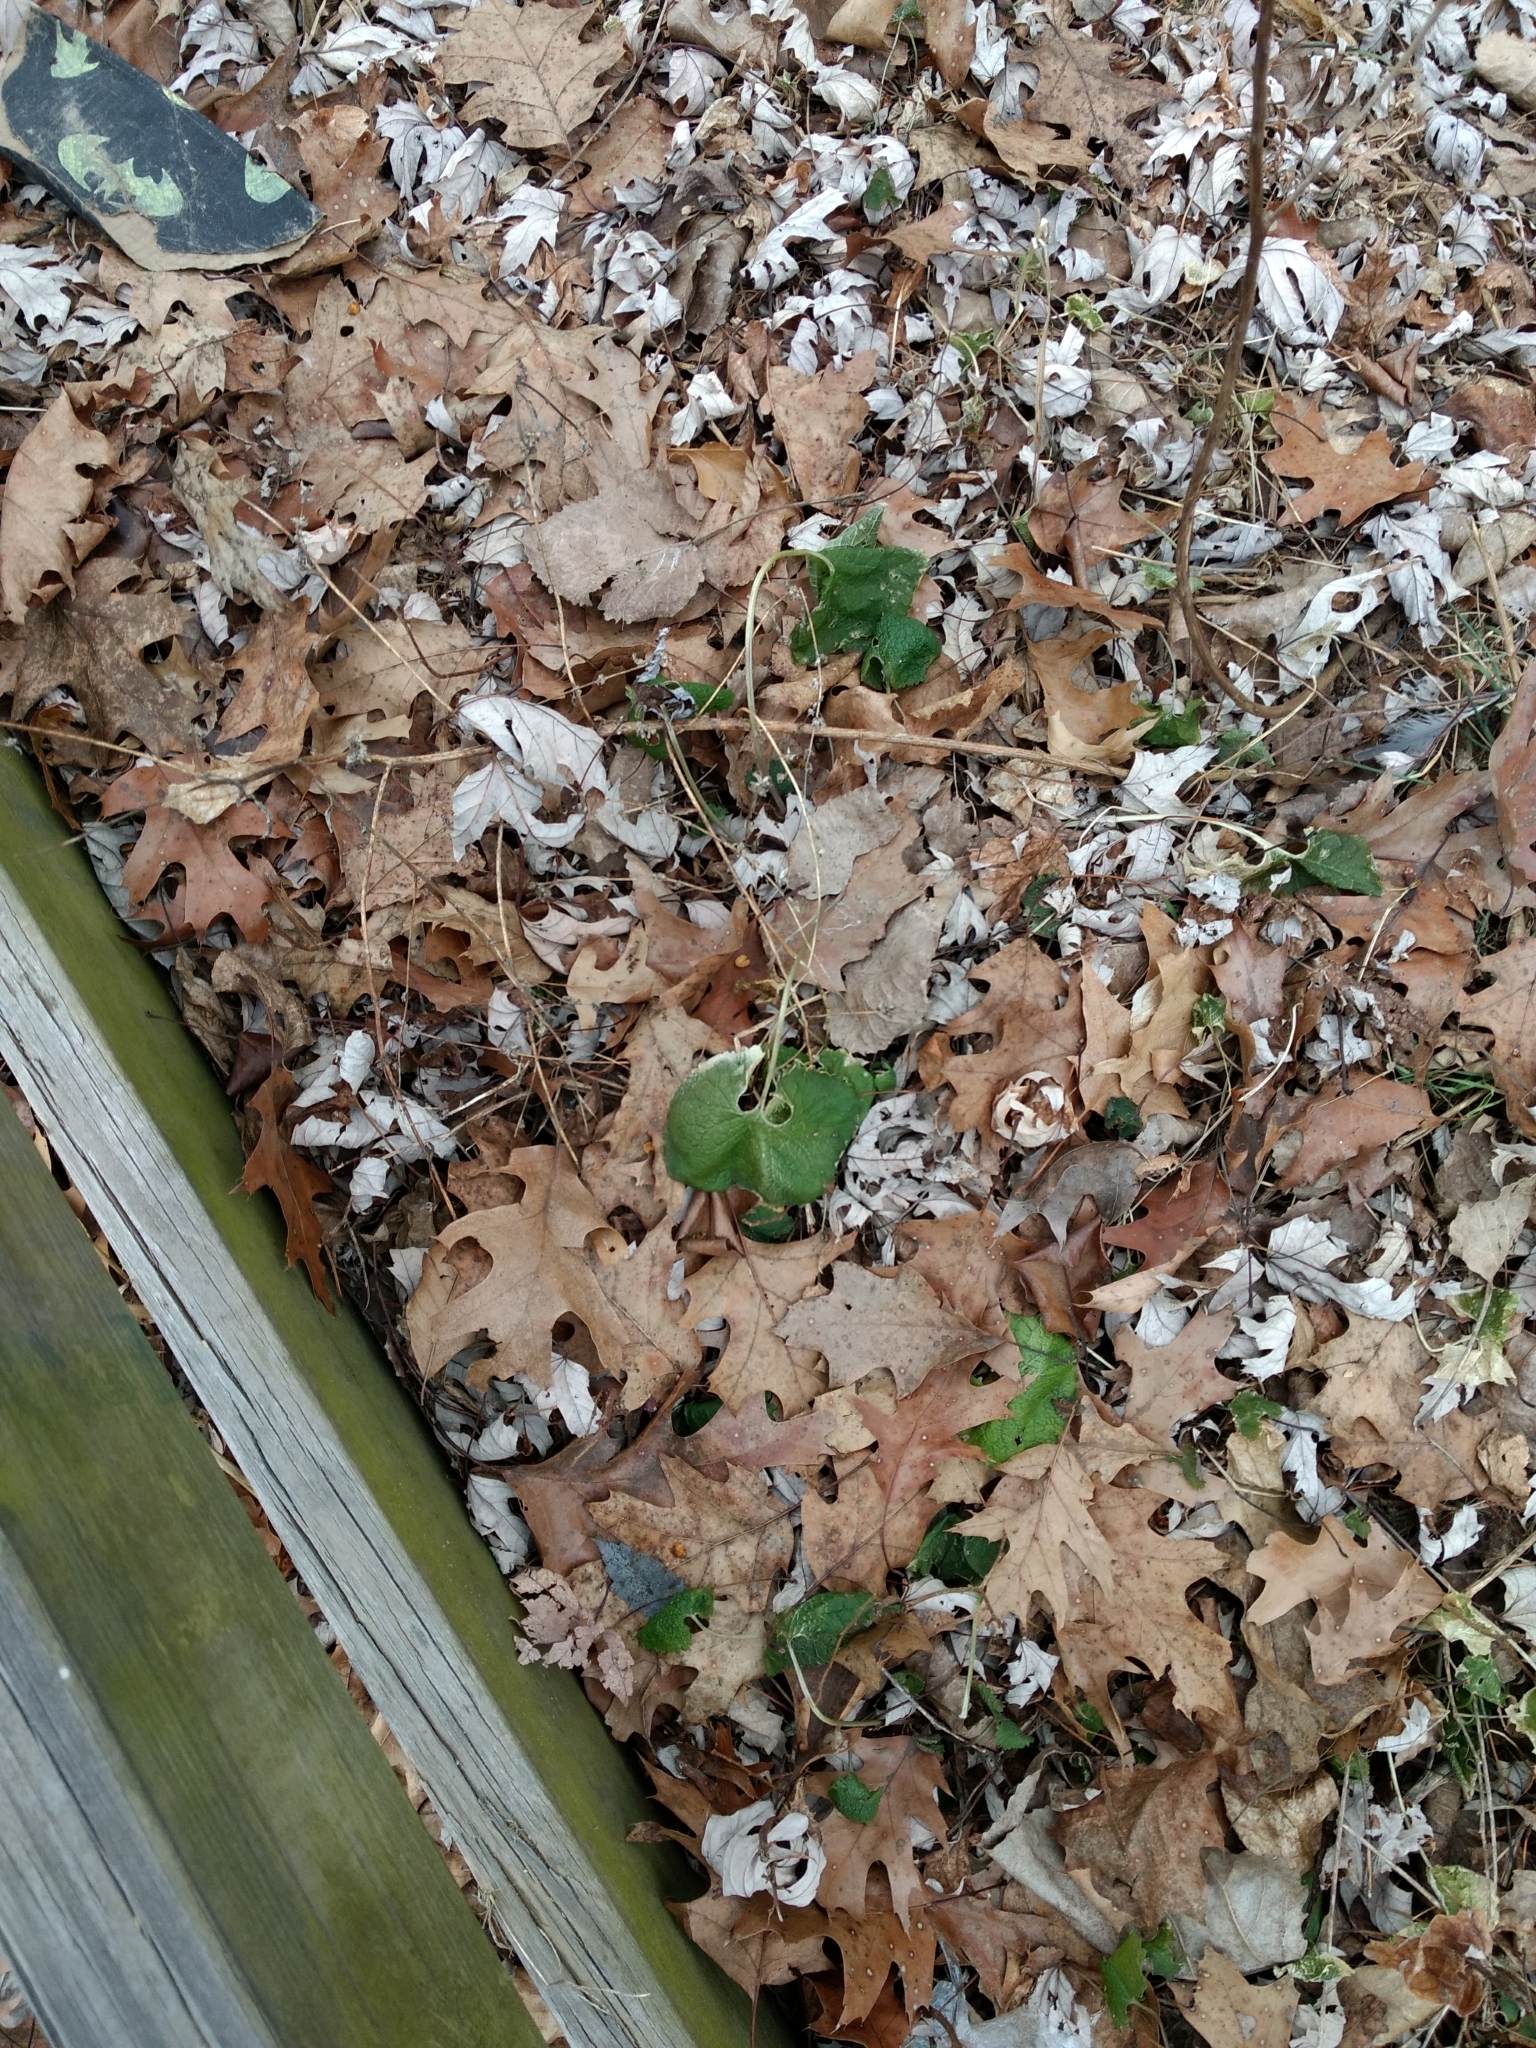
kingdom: Plantae
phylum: Tracheophyta
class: Magnoliopsida
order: Brassicales
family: Brassicaceae
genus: Alliaria
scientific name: Alliaria petiolata
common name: Garlic mustard
